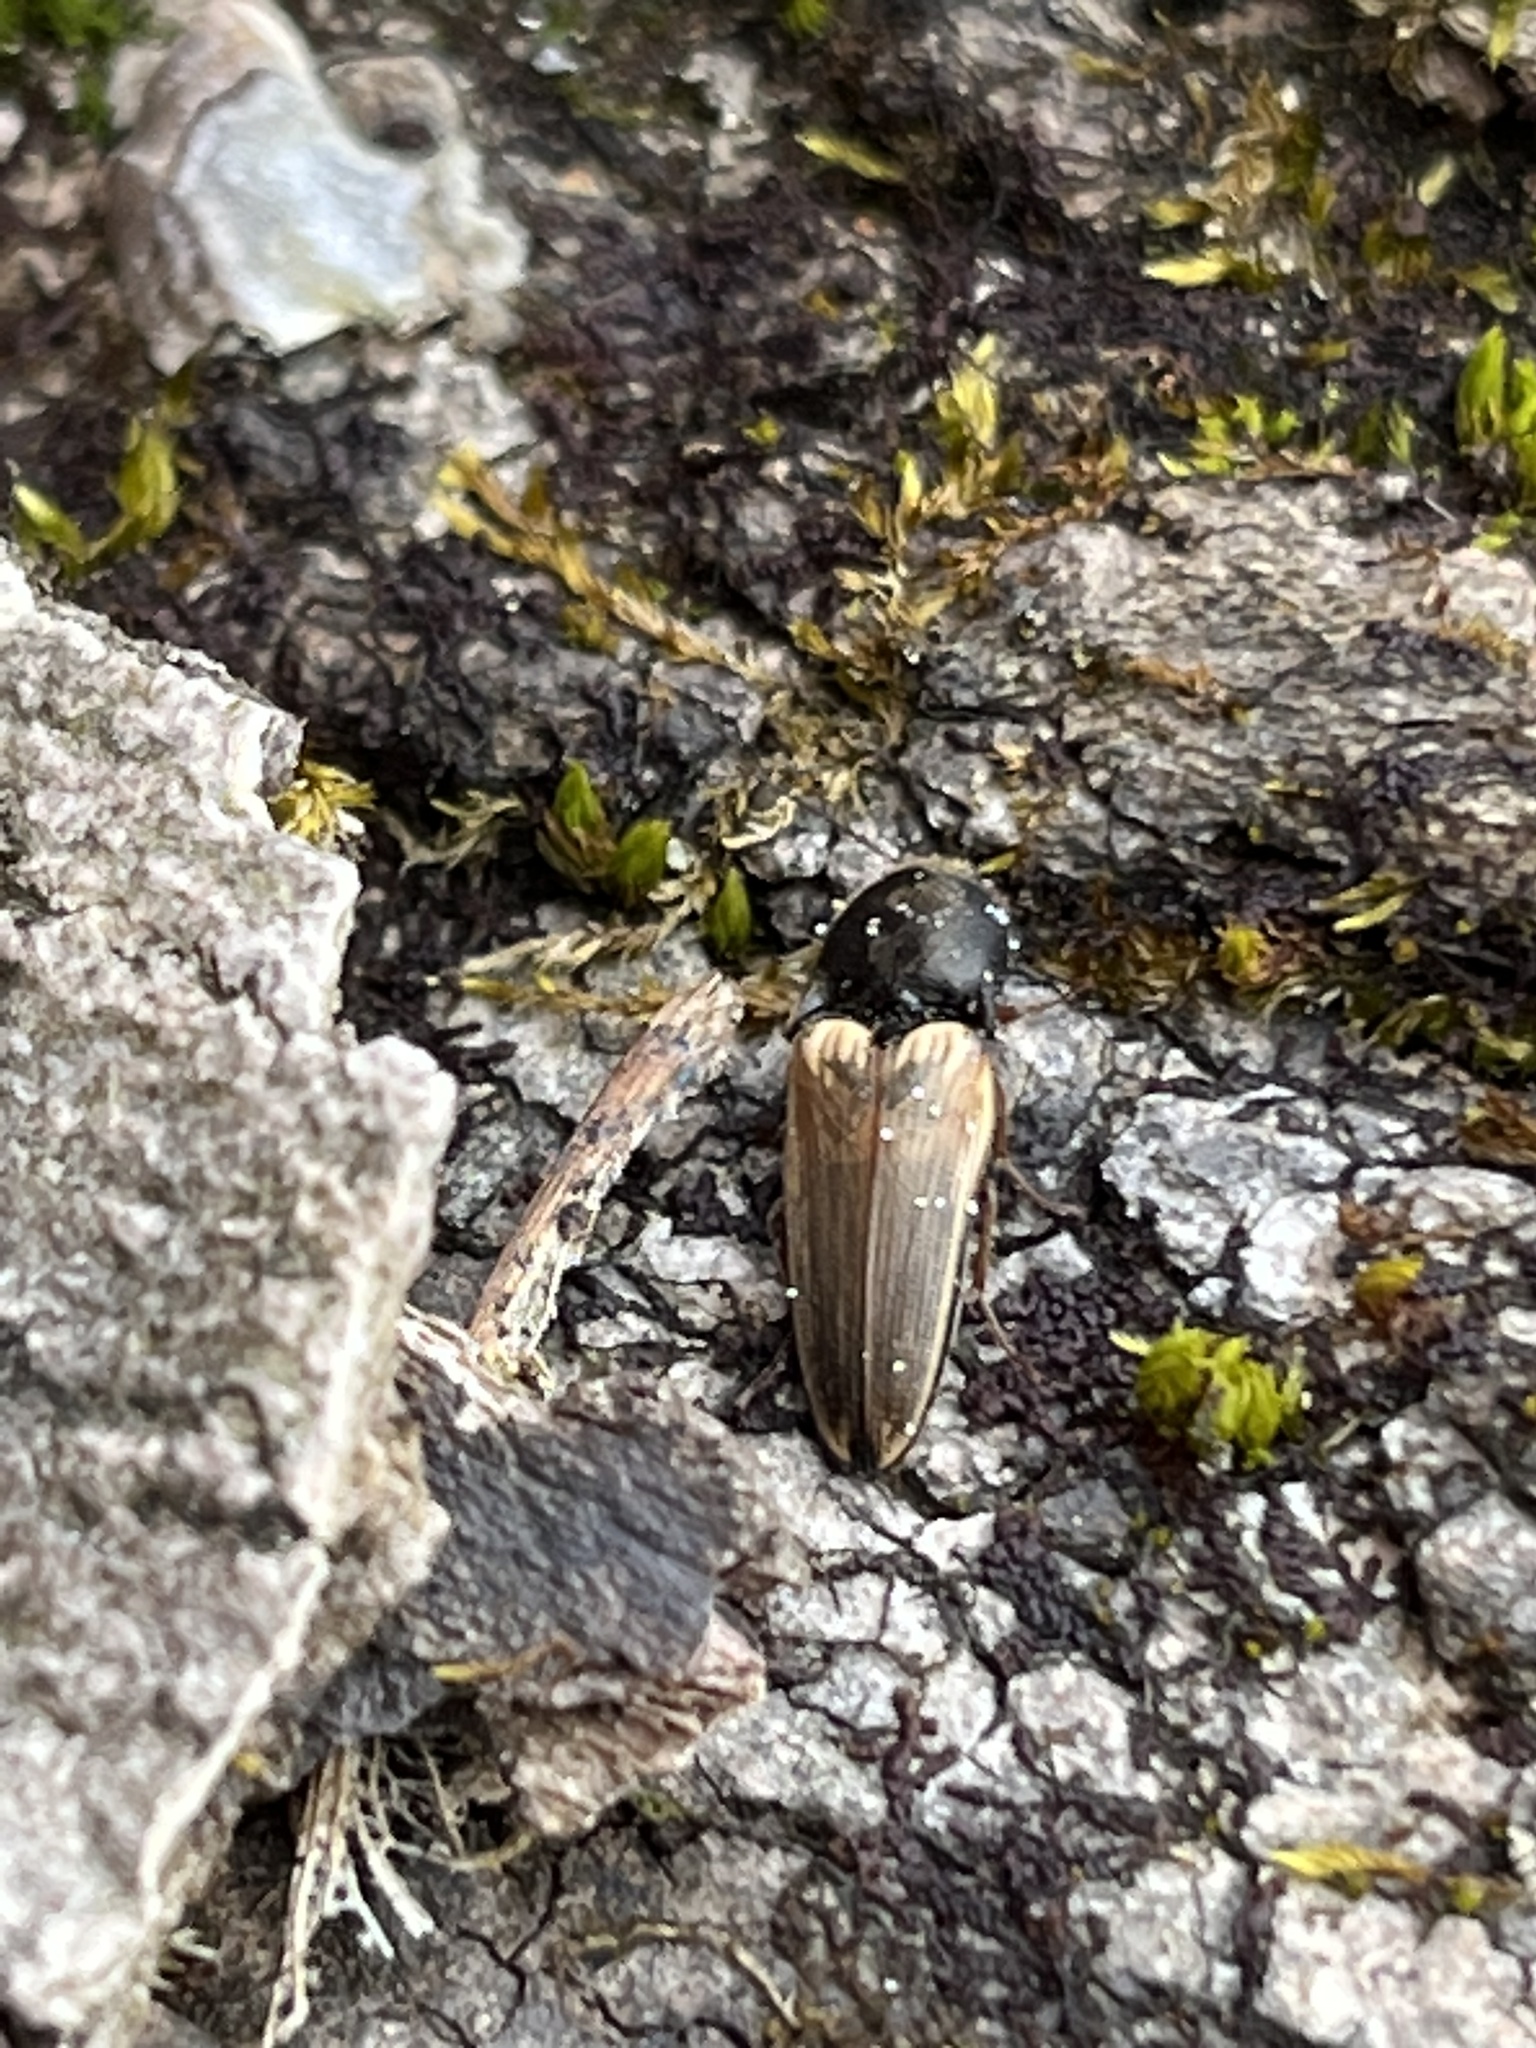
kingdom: Animalia
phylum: Arthropoda
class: Insecta
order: Coleoptera
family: Elateridae
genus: Ampedus
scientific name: Ampedus nigricollis
